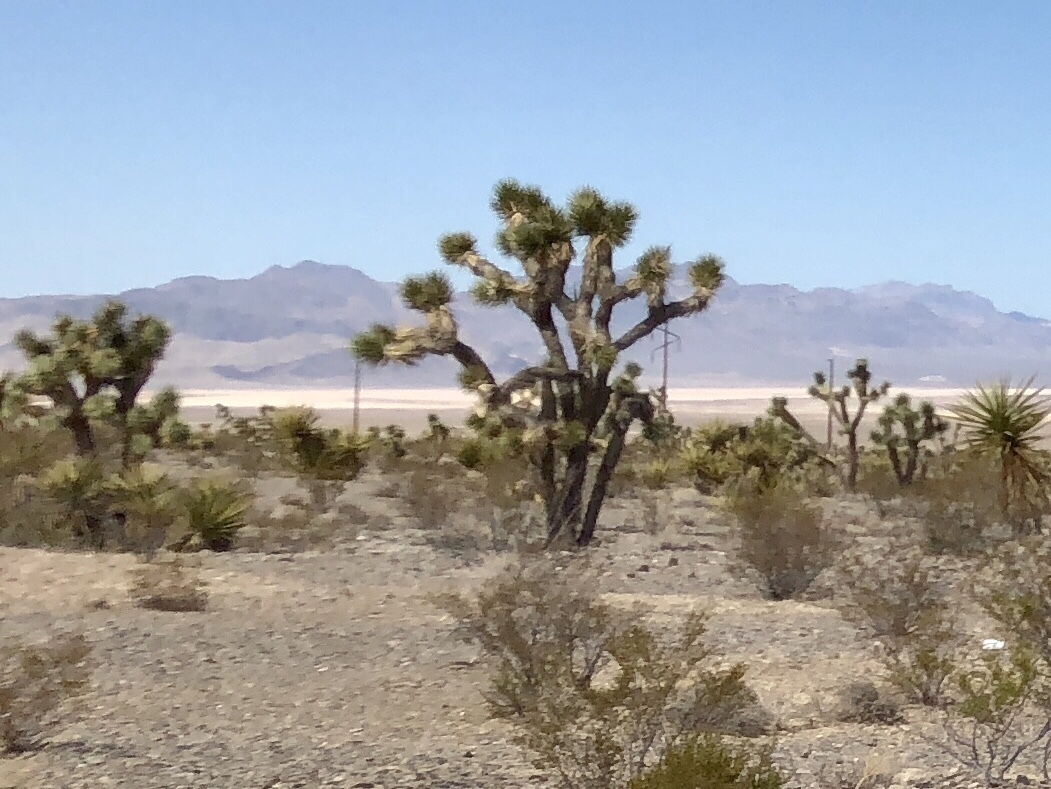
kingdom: Plantae
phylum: Tracheophyta
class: Liliopsida
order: Asparagales
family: Asparagaceae
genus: Yucca
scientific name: Yucca brevifolia
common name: Joshua tree
